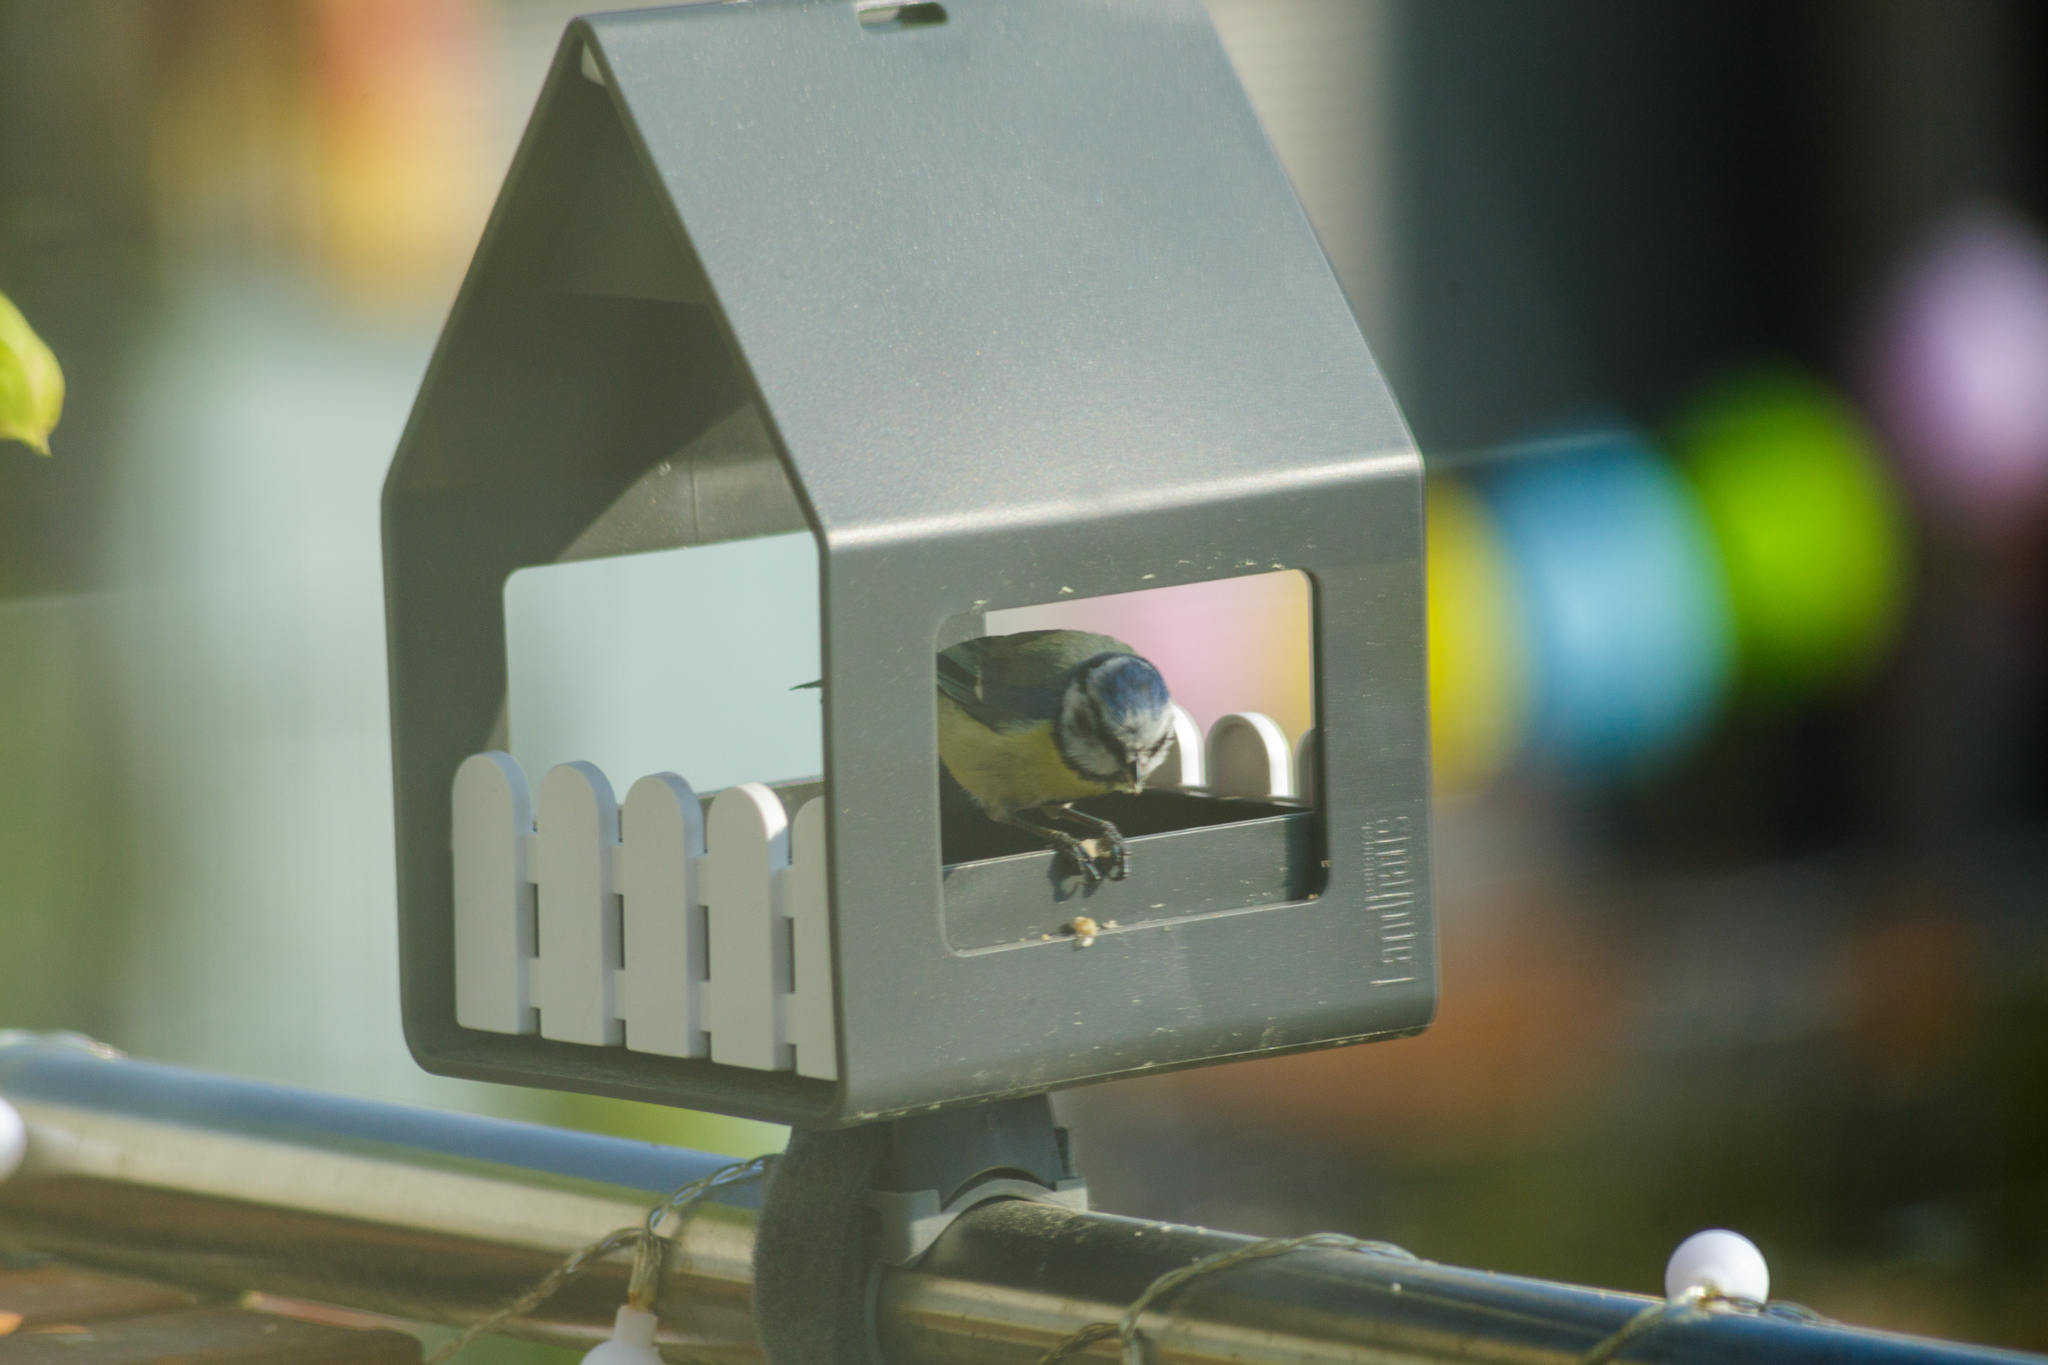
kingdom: Animalia
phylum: Chordata
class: Aves
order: Passeriformes
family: Paridae
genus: Cyanistes
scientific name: Cyanistes caeruleus
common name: Eurasian blue tit
